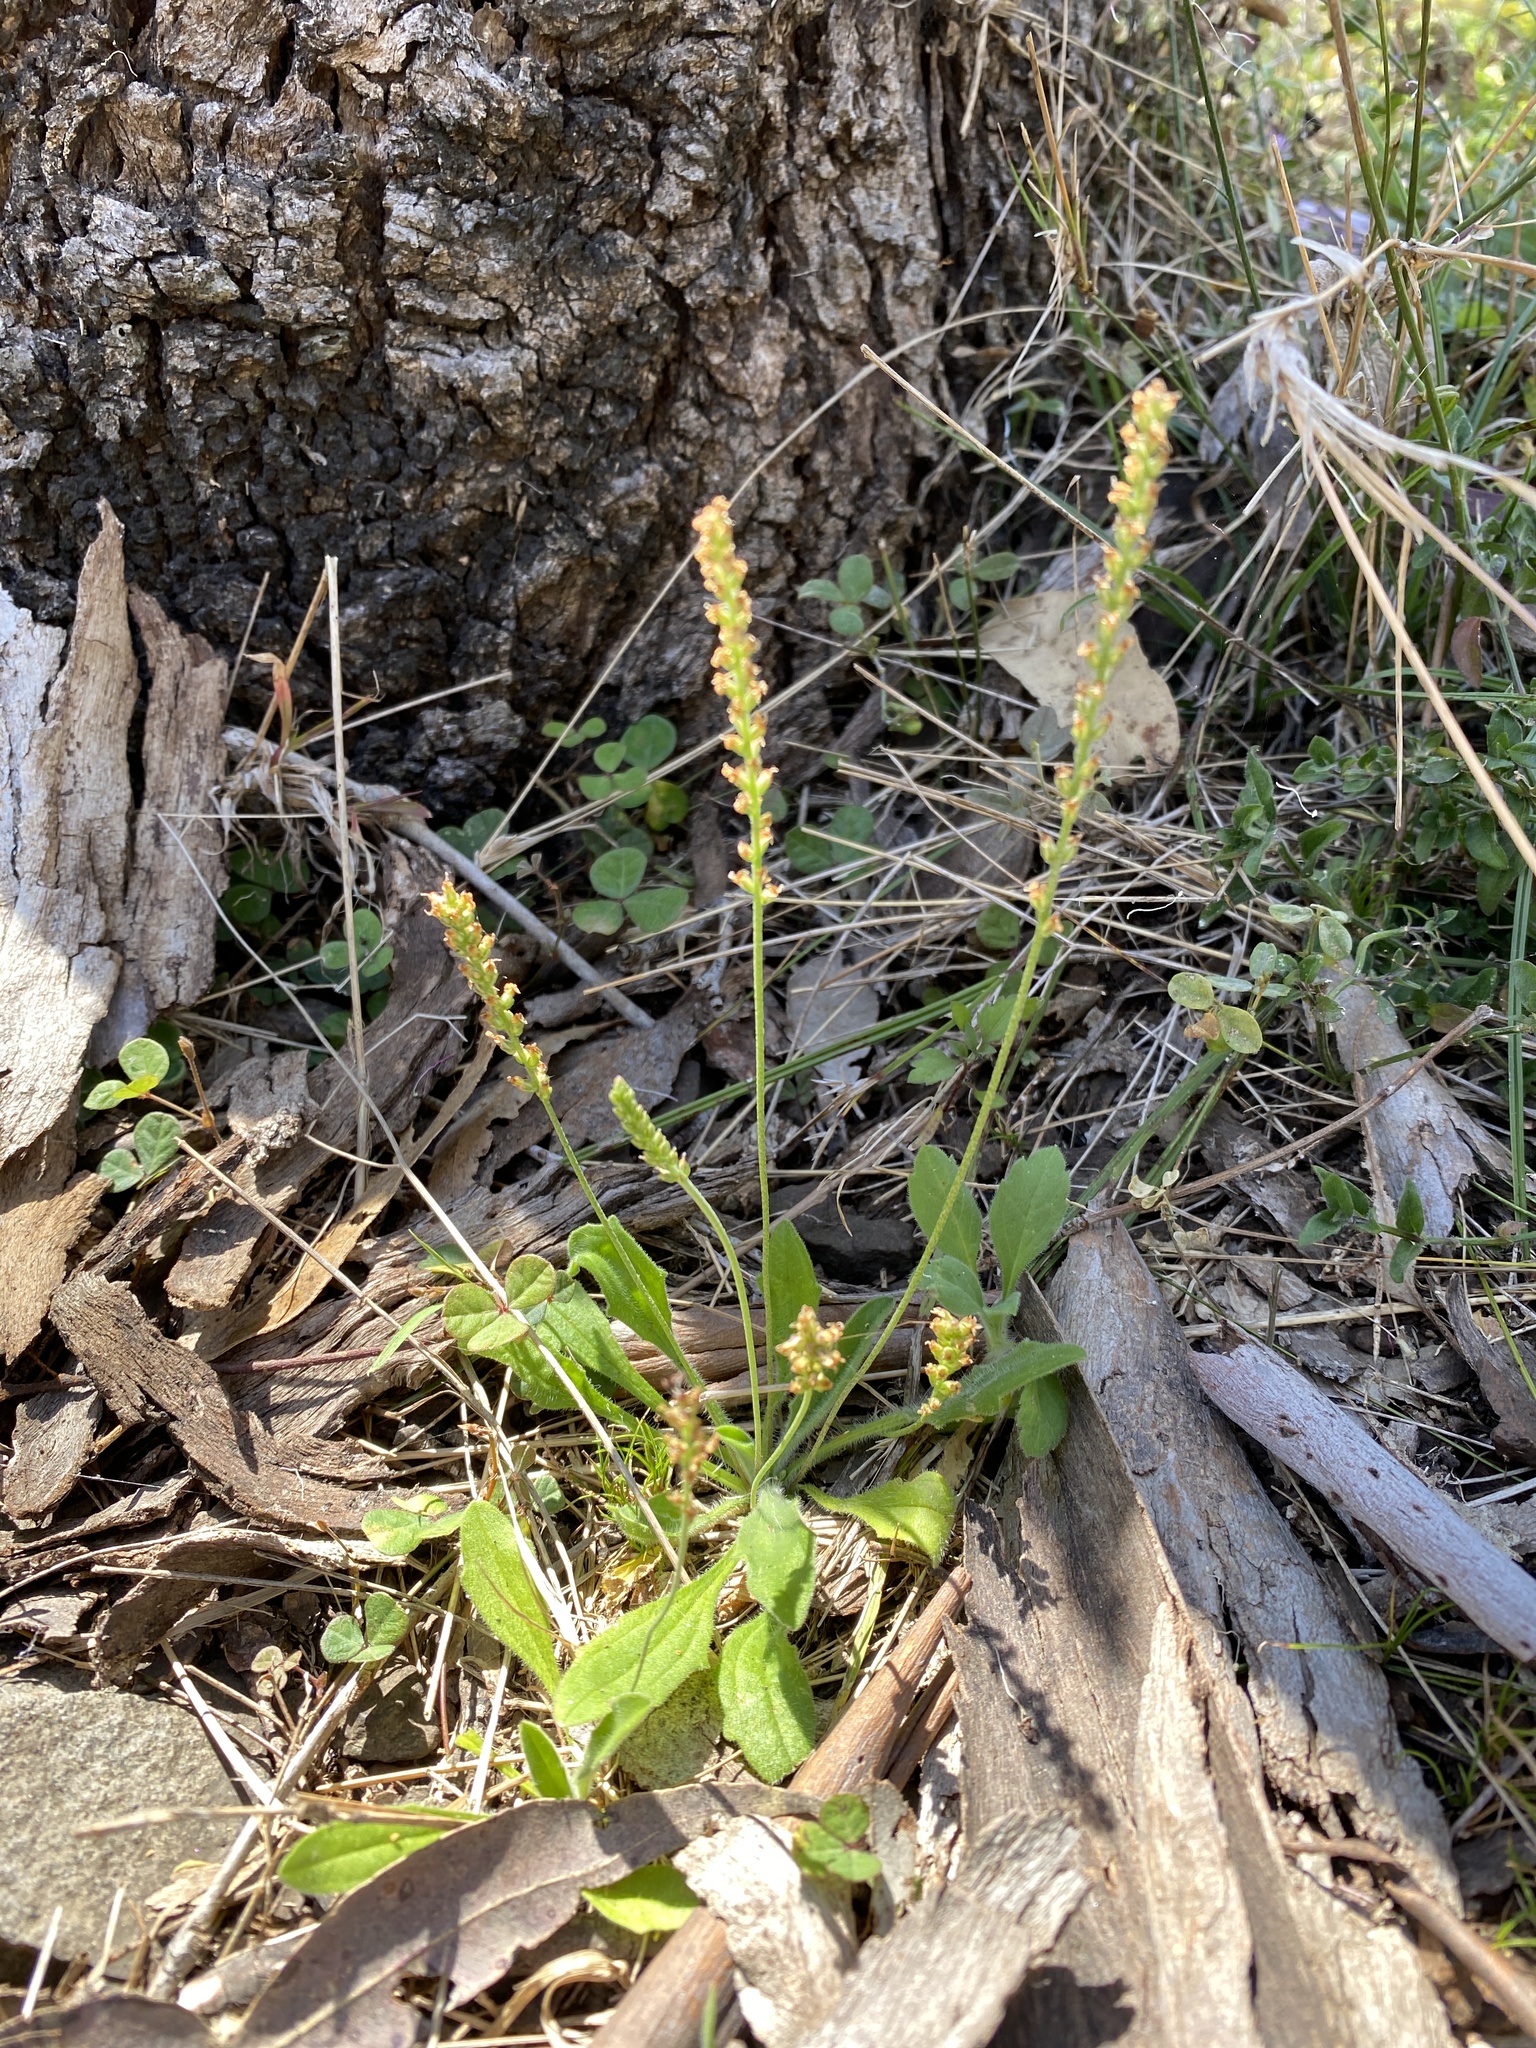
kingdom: Plantae
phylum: Tracheophyta
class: Magnoliopsida
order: Lamiales
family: Plantaginaceae
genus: Plantago
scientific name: Plantago debilis
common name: Weak plantain
